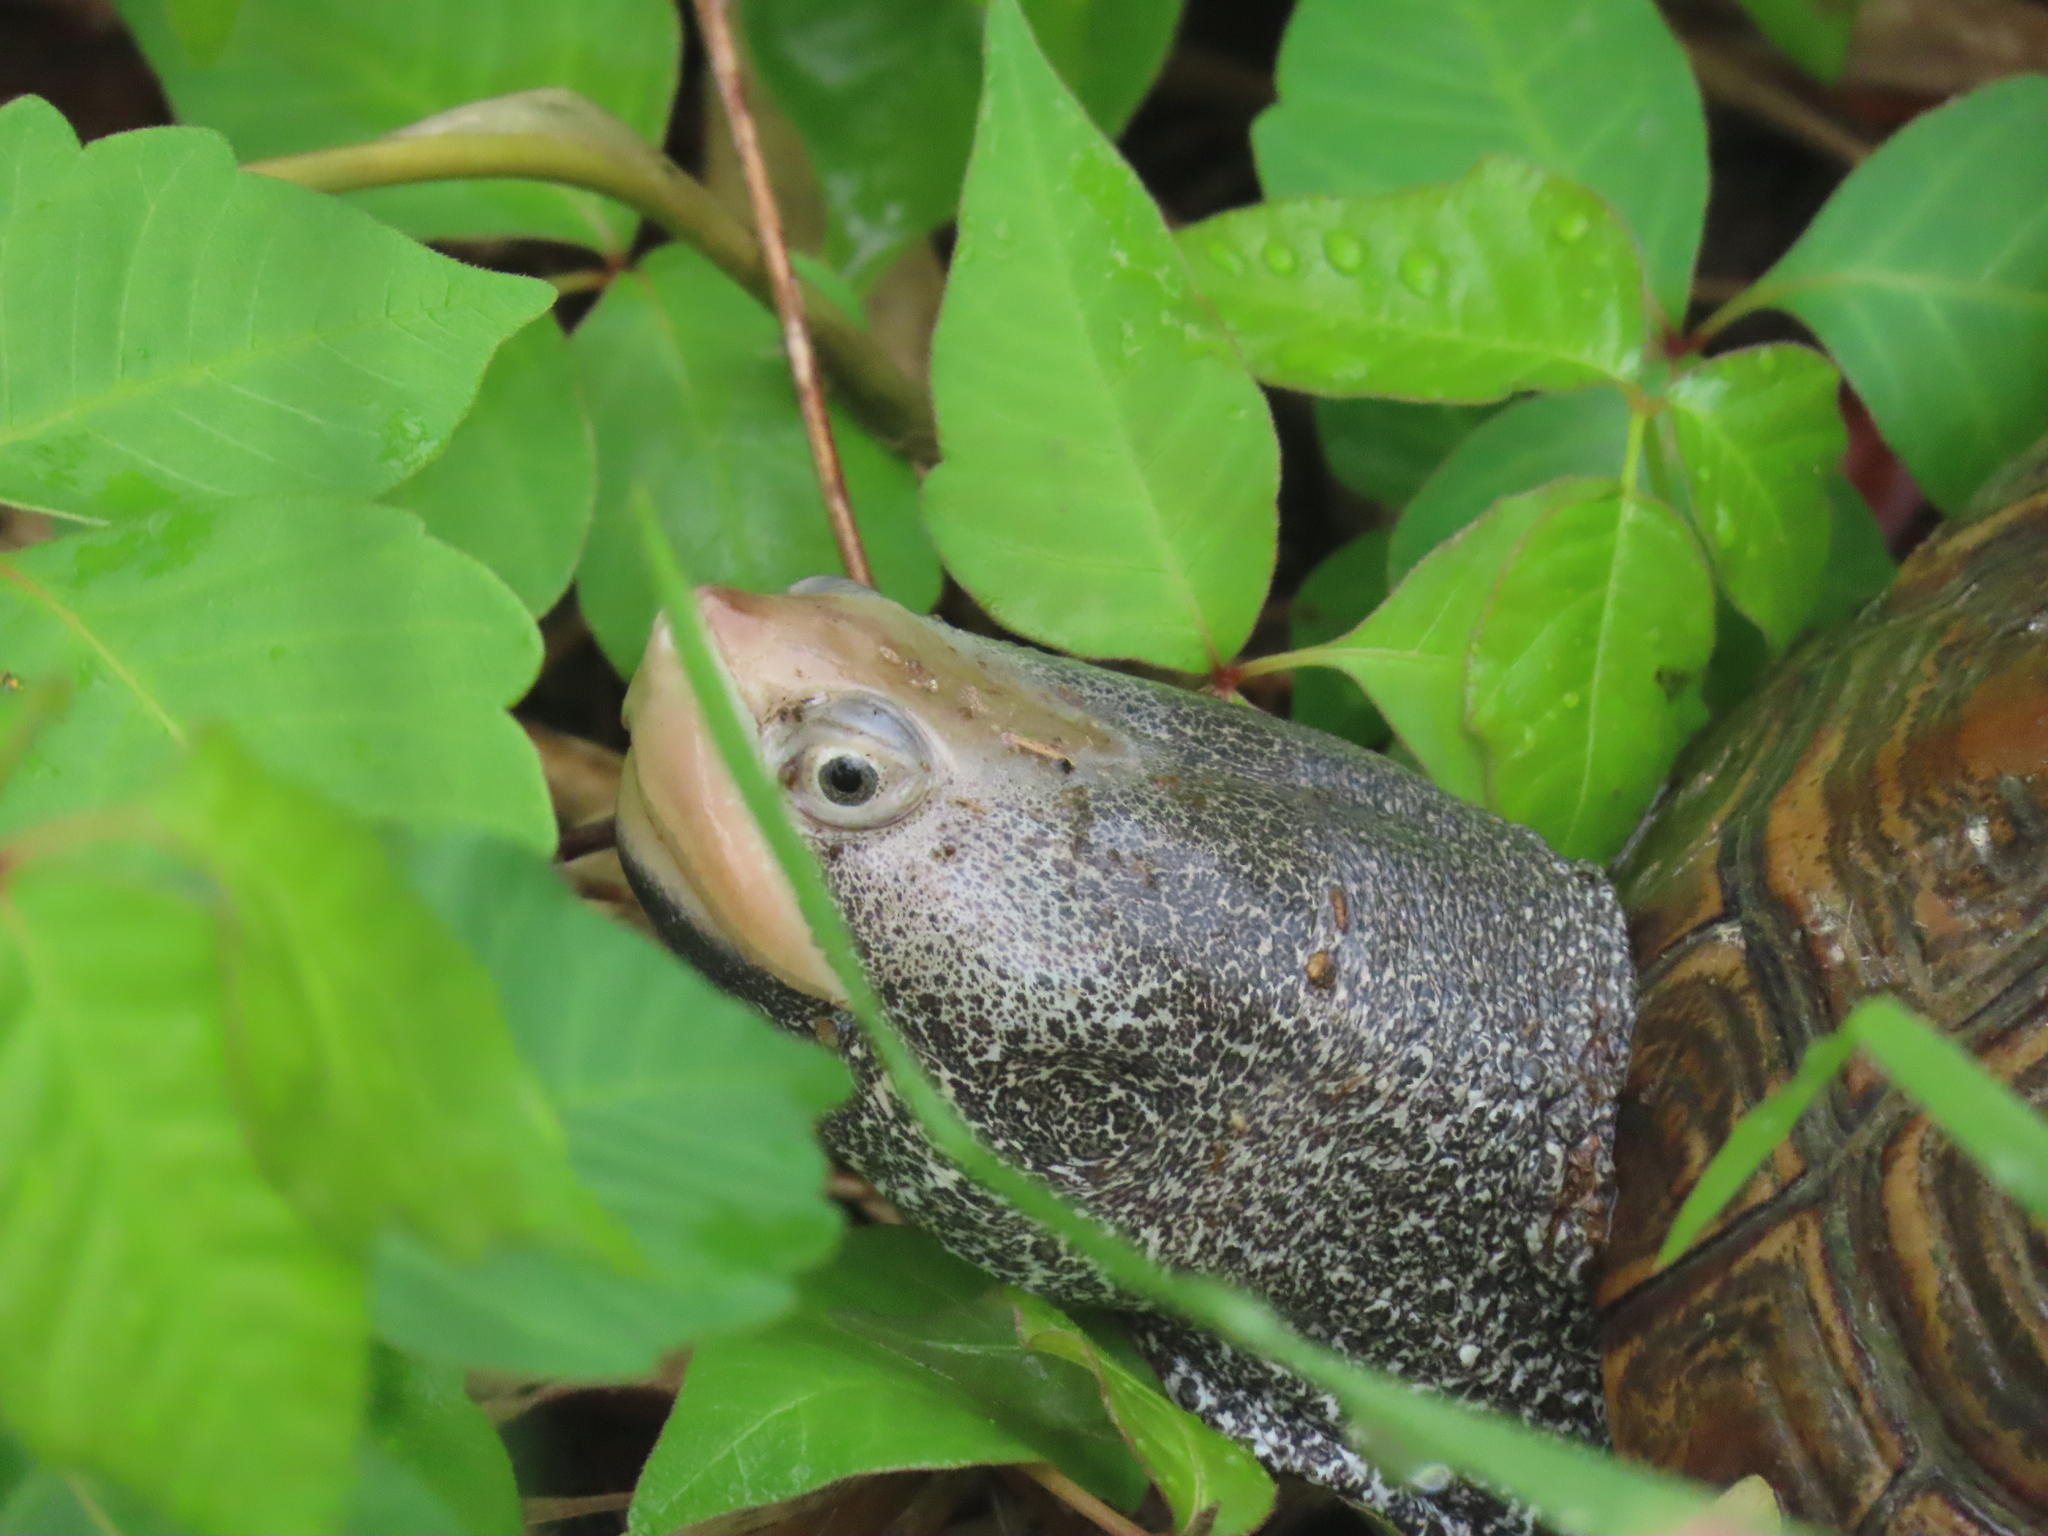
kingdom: Animalia
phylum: Chordata
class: Testudines
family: Emydidae
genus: Malaclemys
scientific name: Malaclemys terrapin
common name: Diamondback terrapin
